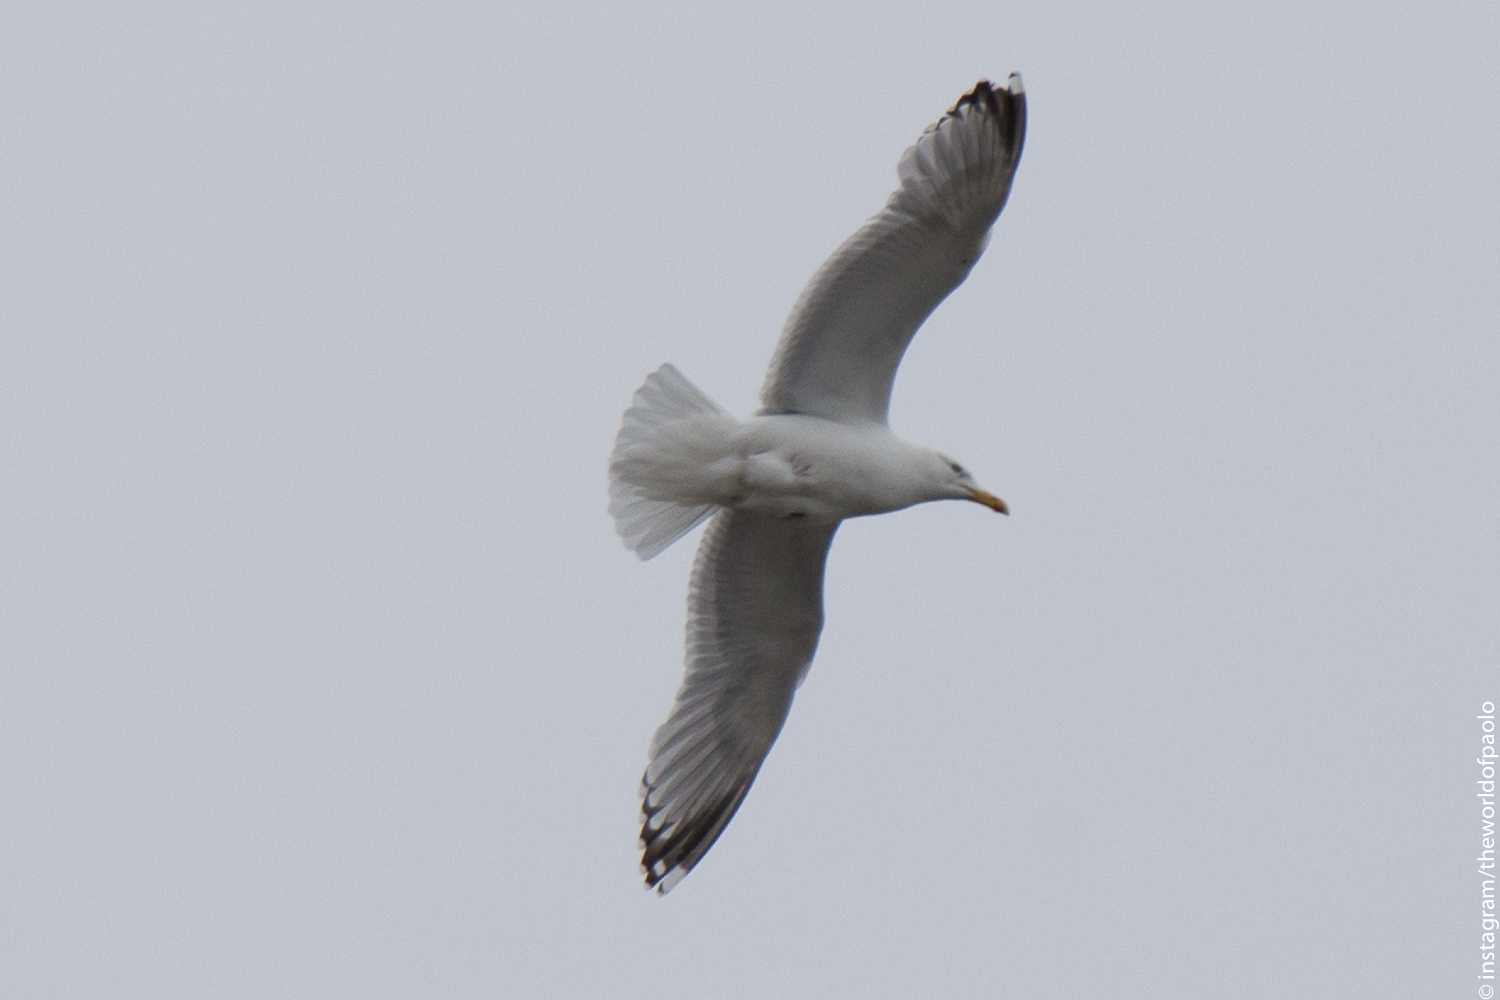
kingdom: Animalia
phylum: Chordata
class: Aves
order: Charadriiformes
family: Laridae
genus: Larus
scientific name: Larus argentatus
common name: Herring gull
